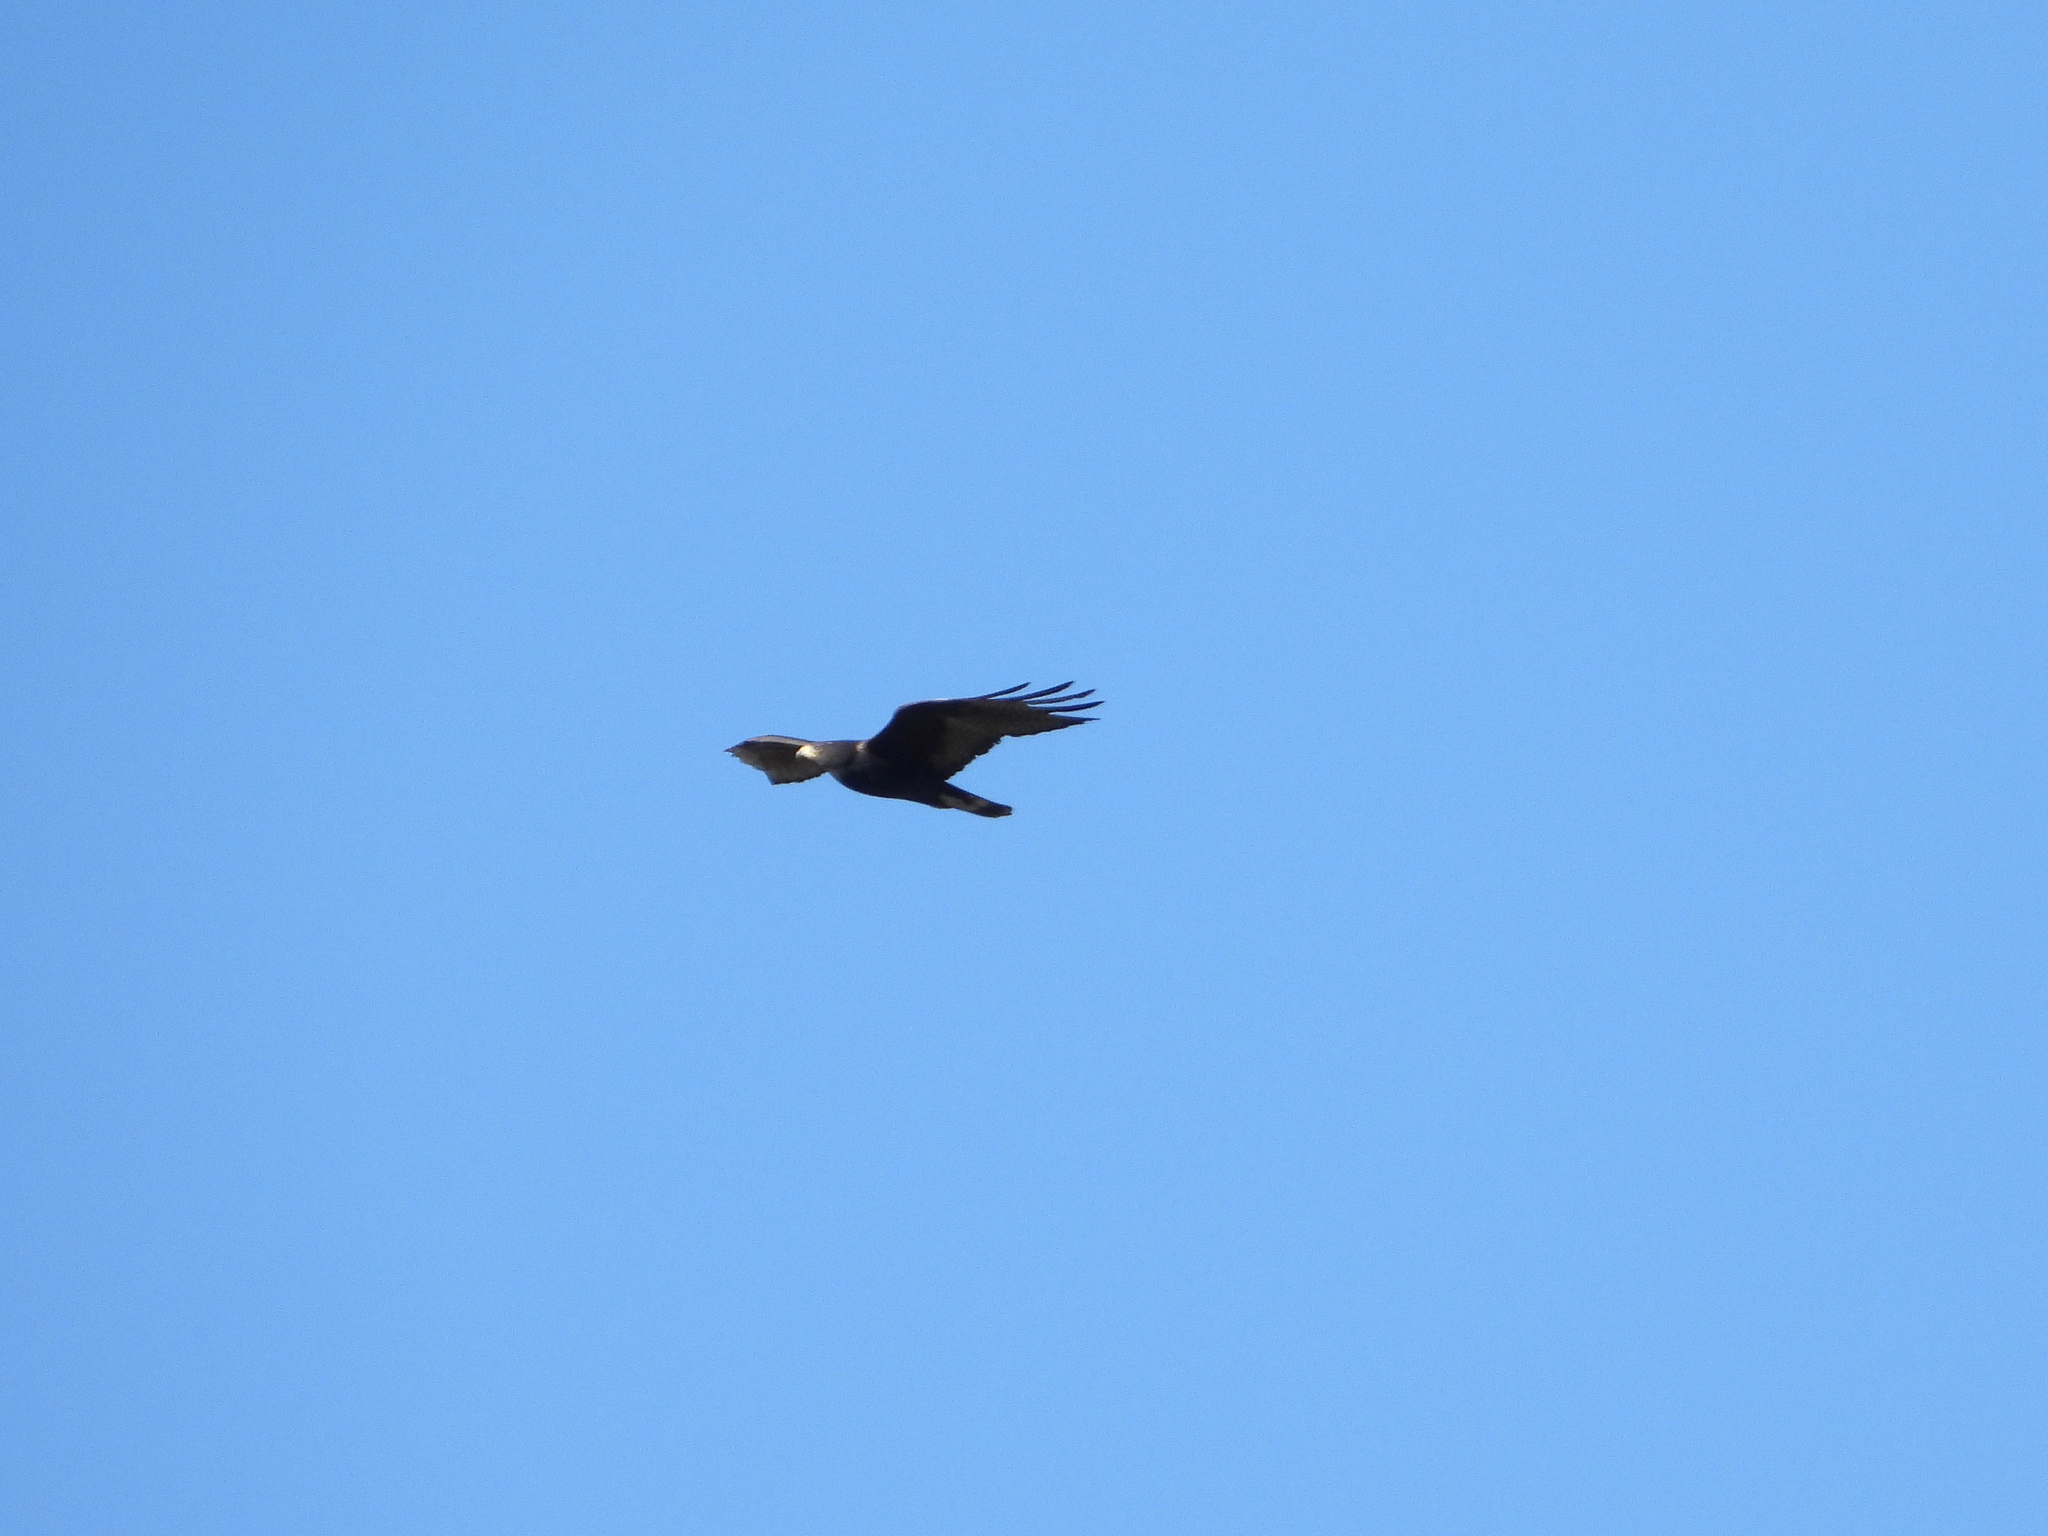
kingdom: Animalia
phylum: Chordata
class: Aves
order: Accipitriformes
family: Accipitridae
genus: Buteo
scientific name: Buteo albonotatus
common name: Zone-tailed hawk
